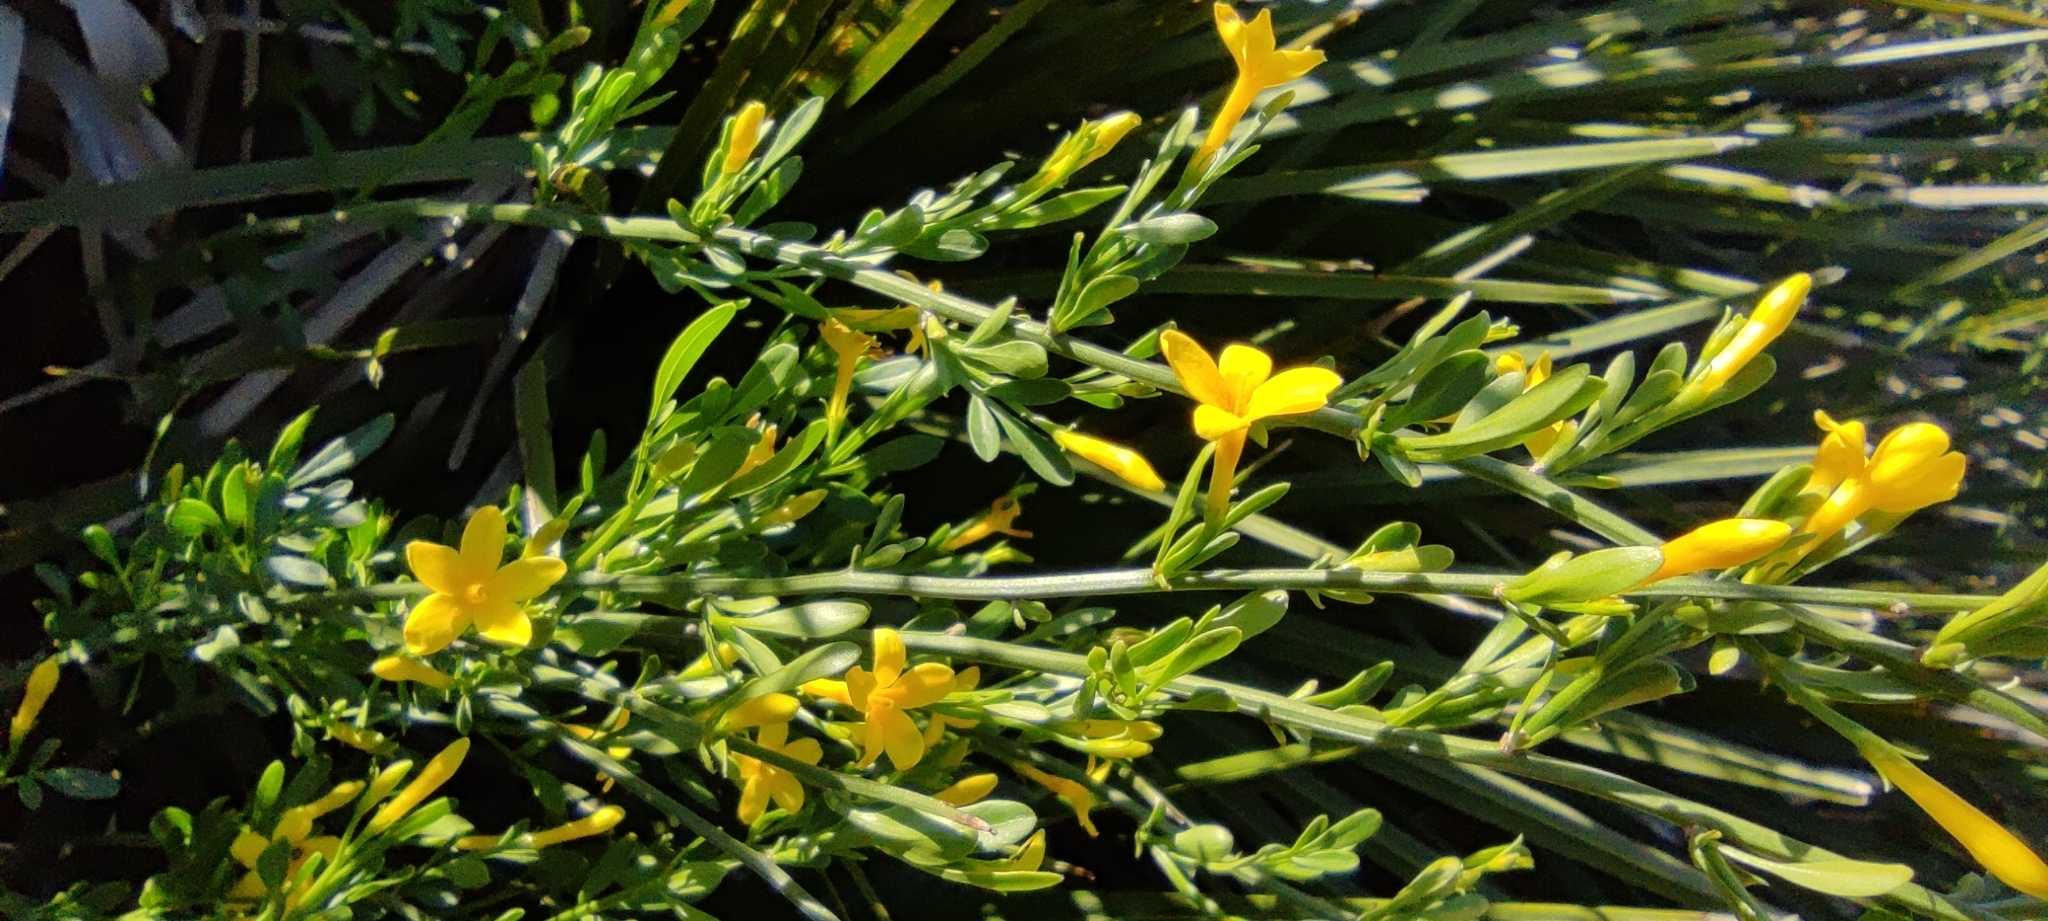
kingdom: Plantae
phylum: Tracheophyta
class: Magnoliopsida
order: Lamiales
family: Oleaceae
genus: Chrysojasminum
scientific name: Chrysojasminum fruticans
